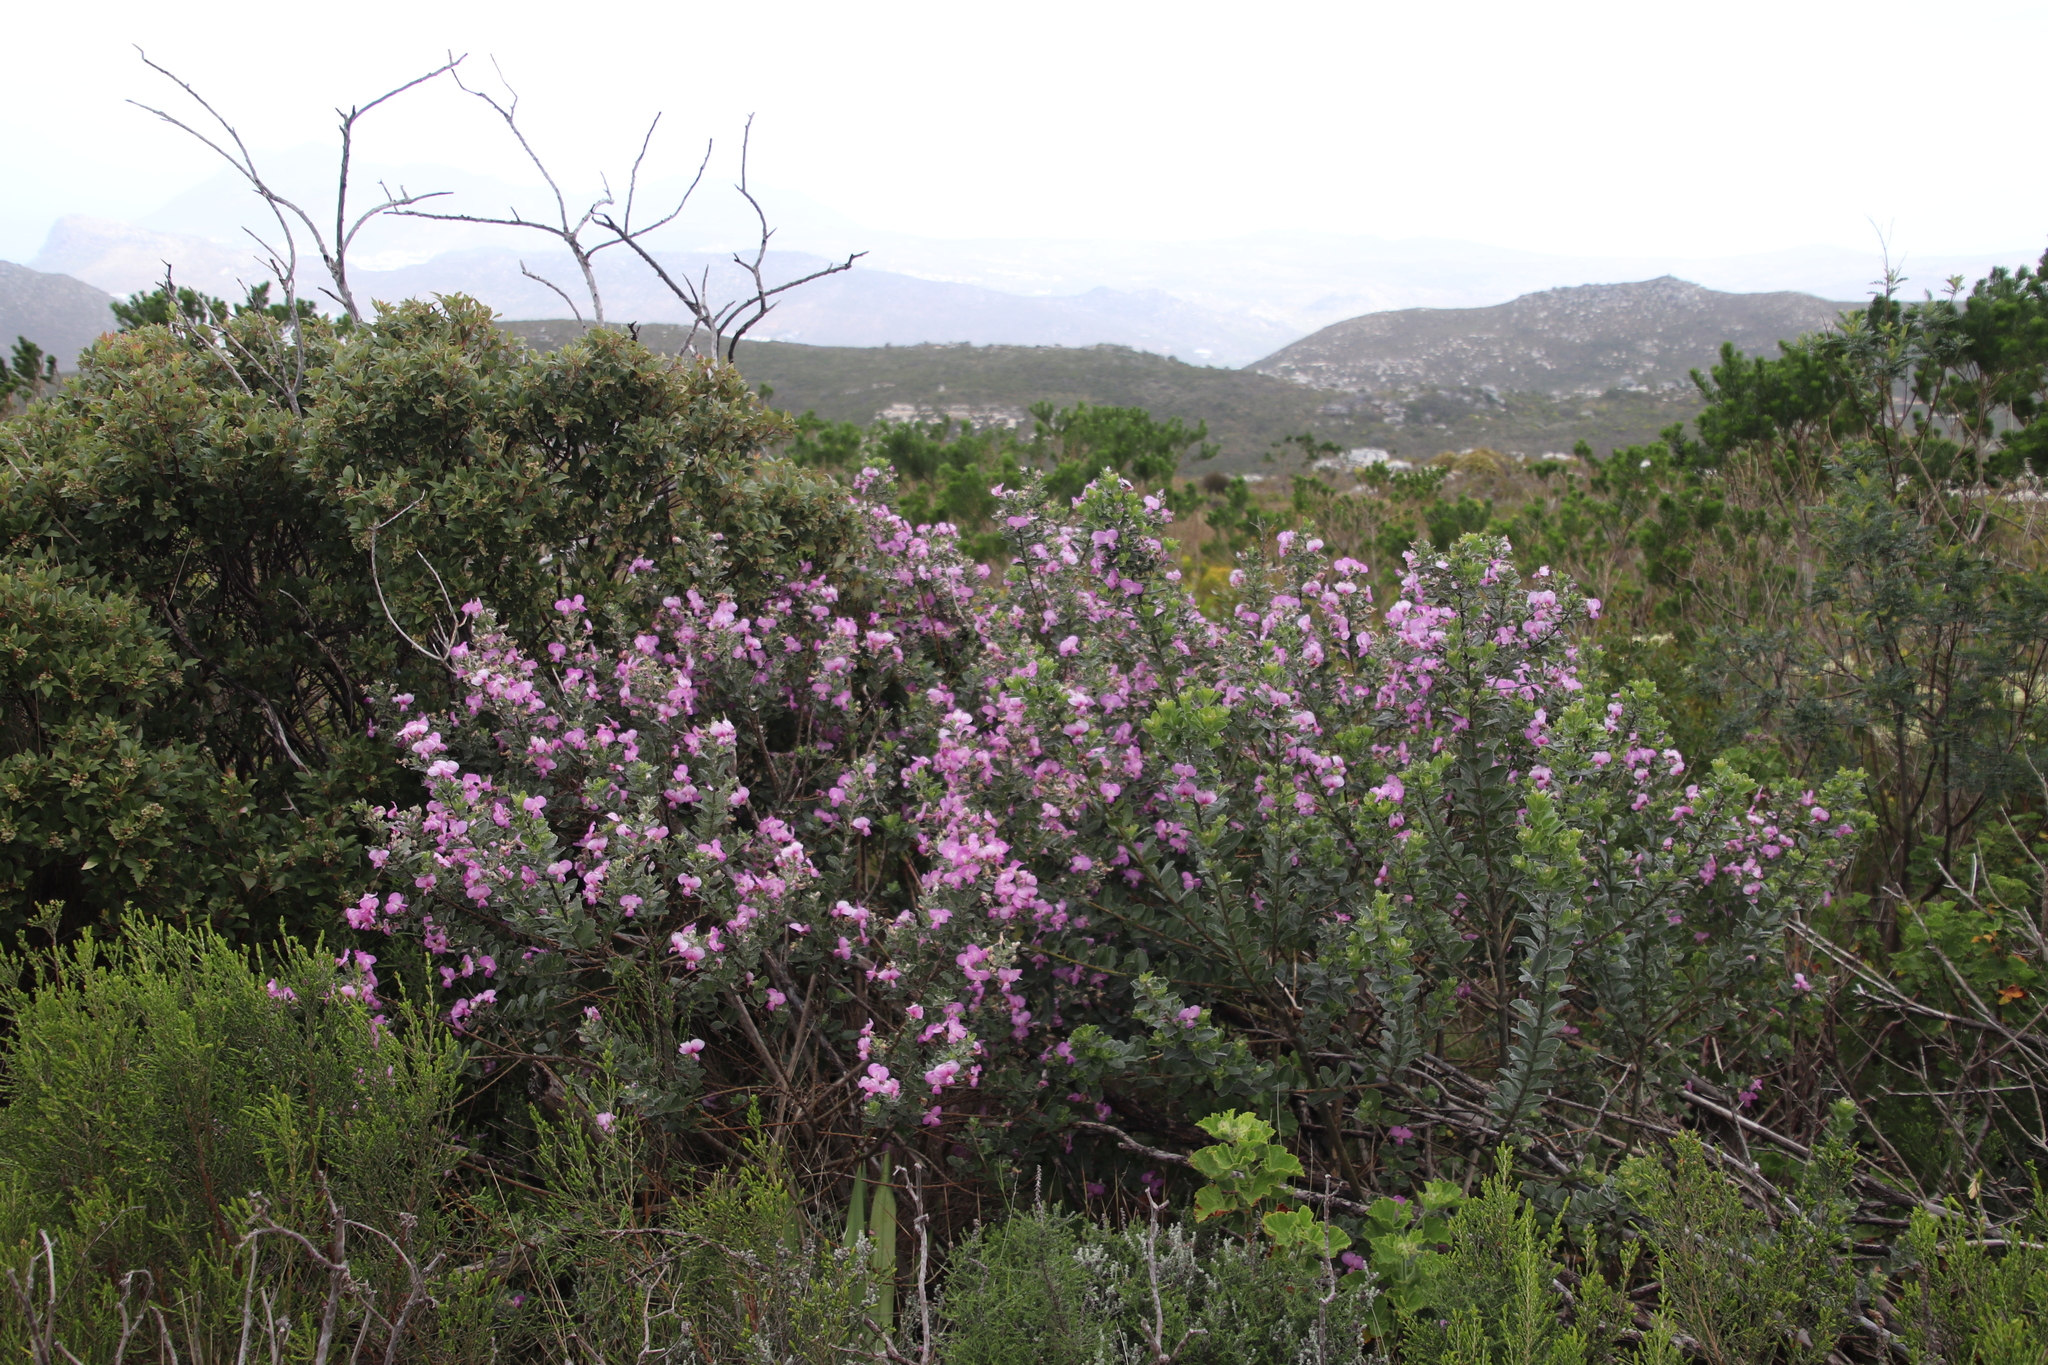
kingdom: Plantae
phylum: Tracheophyta
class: Magnoliopsida
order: Fabales
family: Fabaceae
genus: Podalyria
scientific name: Podalyria calyptrata
